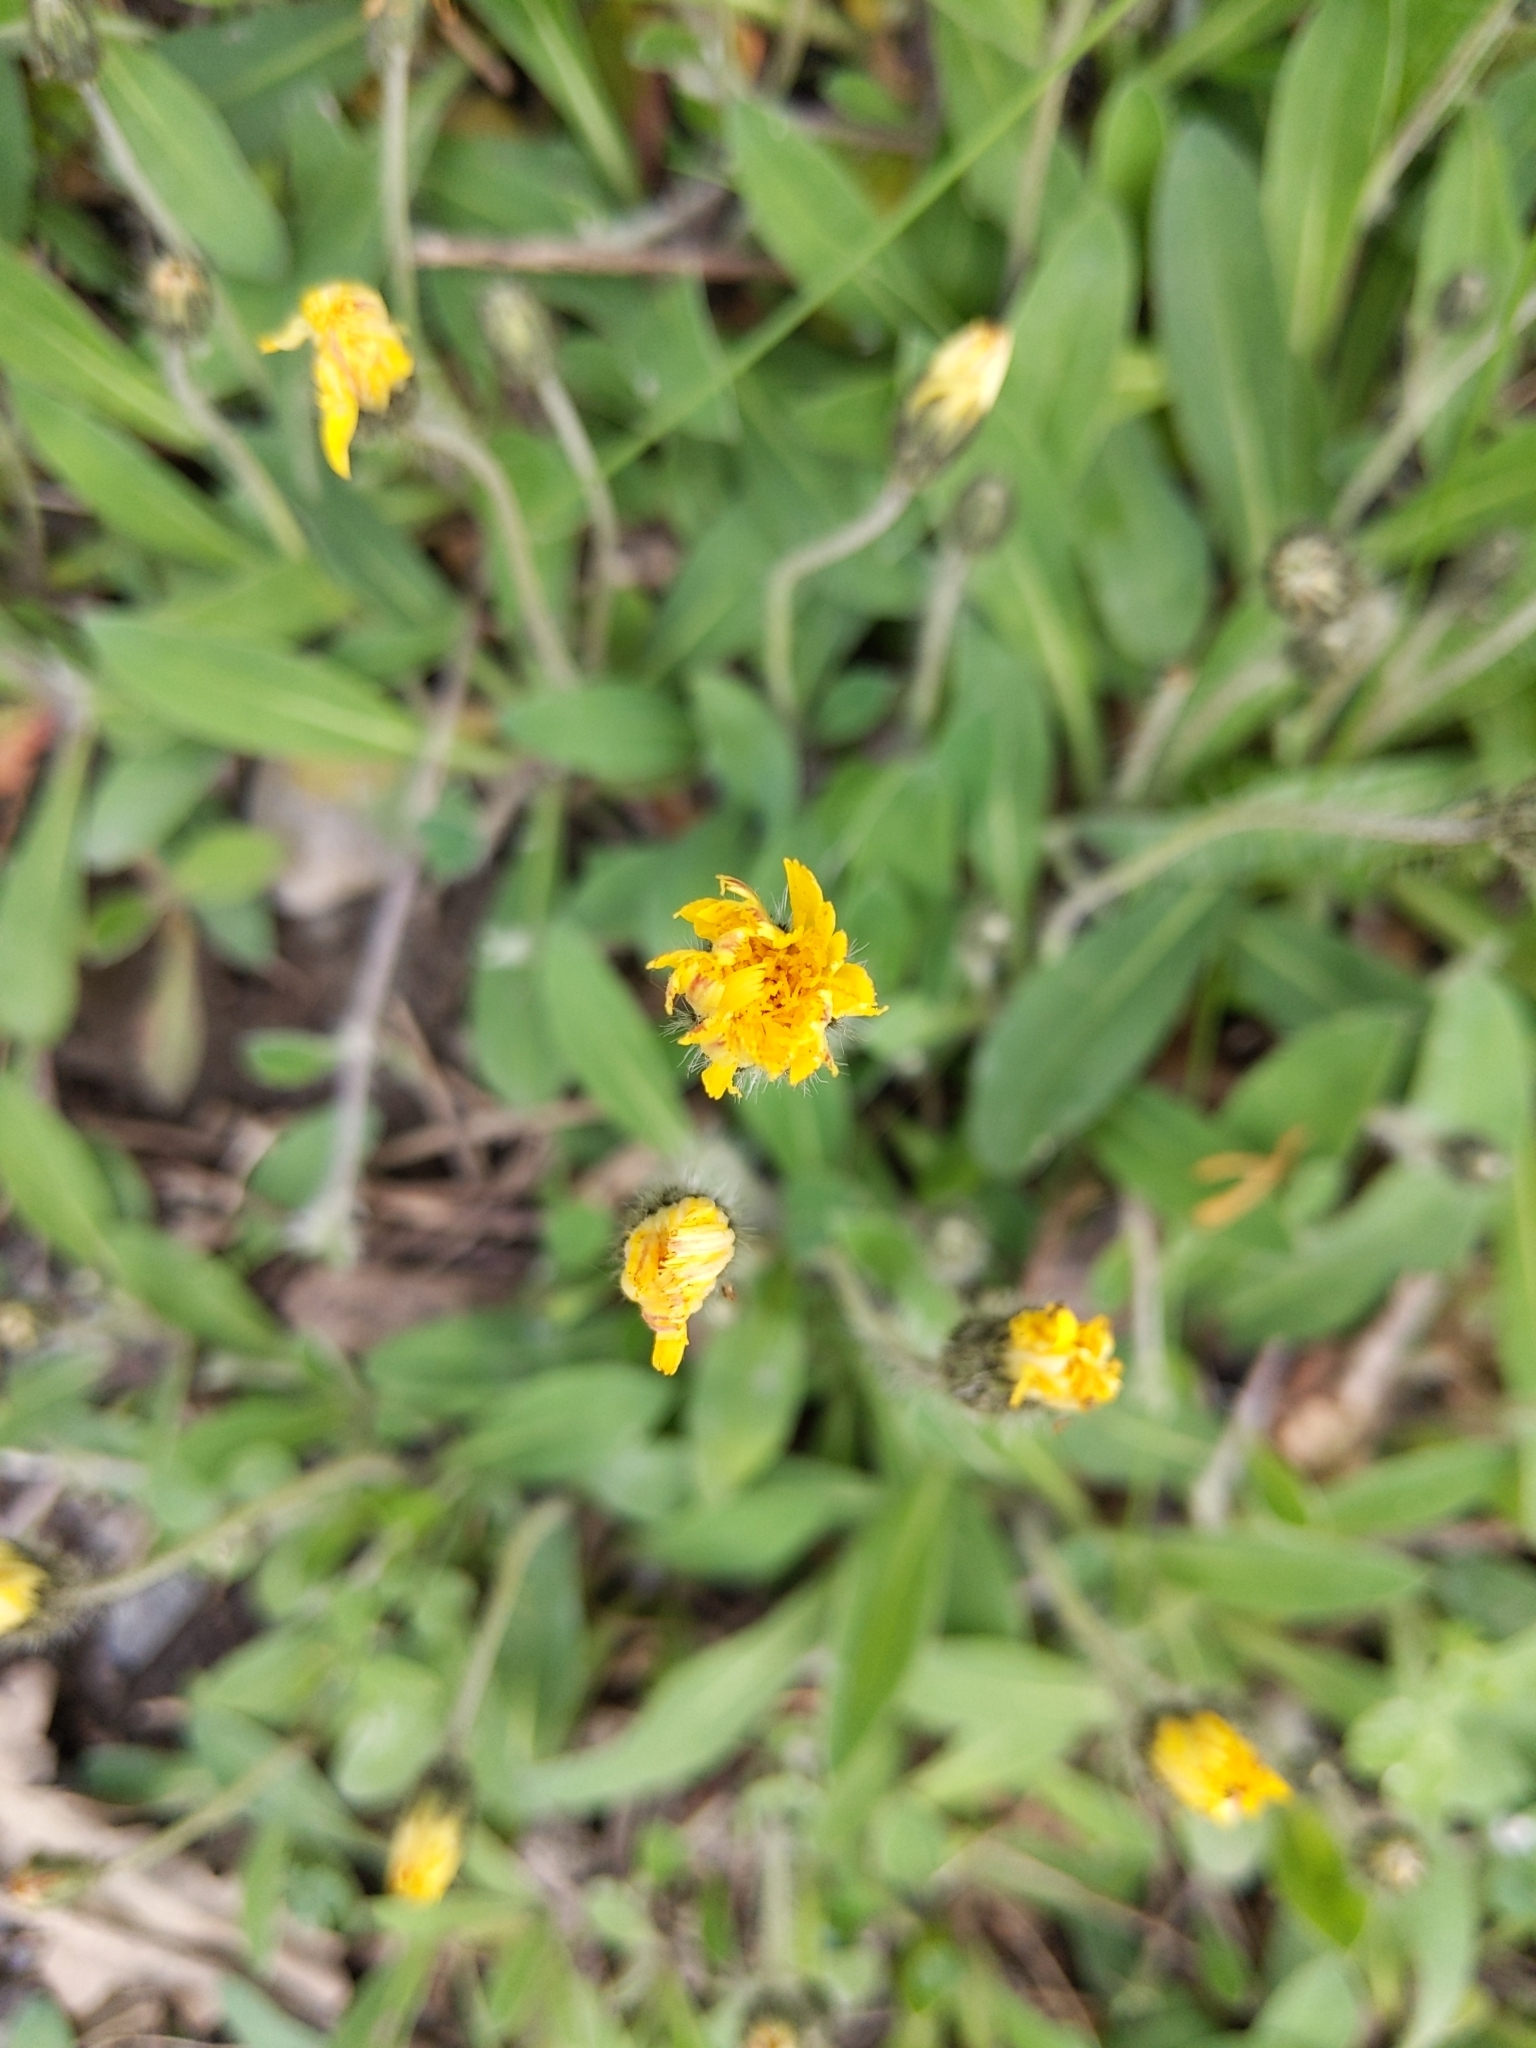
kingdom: Plantae
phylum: Tracheophyta
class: Magnoliopsida
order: Asterales
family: Asteraceae
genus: Pilosella
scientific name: Pilosella officinarum
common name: Mouse-ear hawkweed
